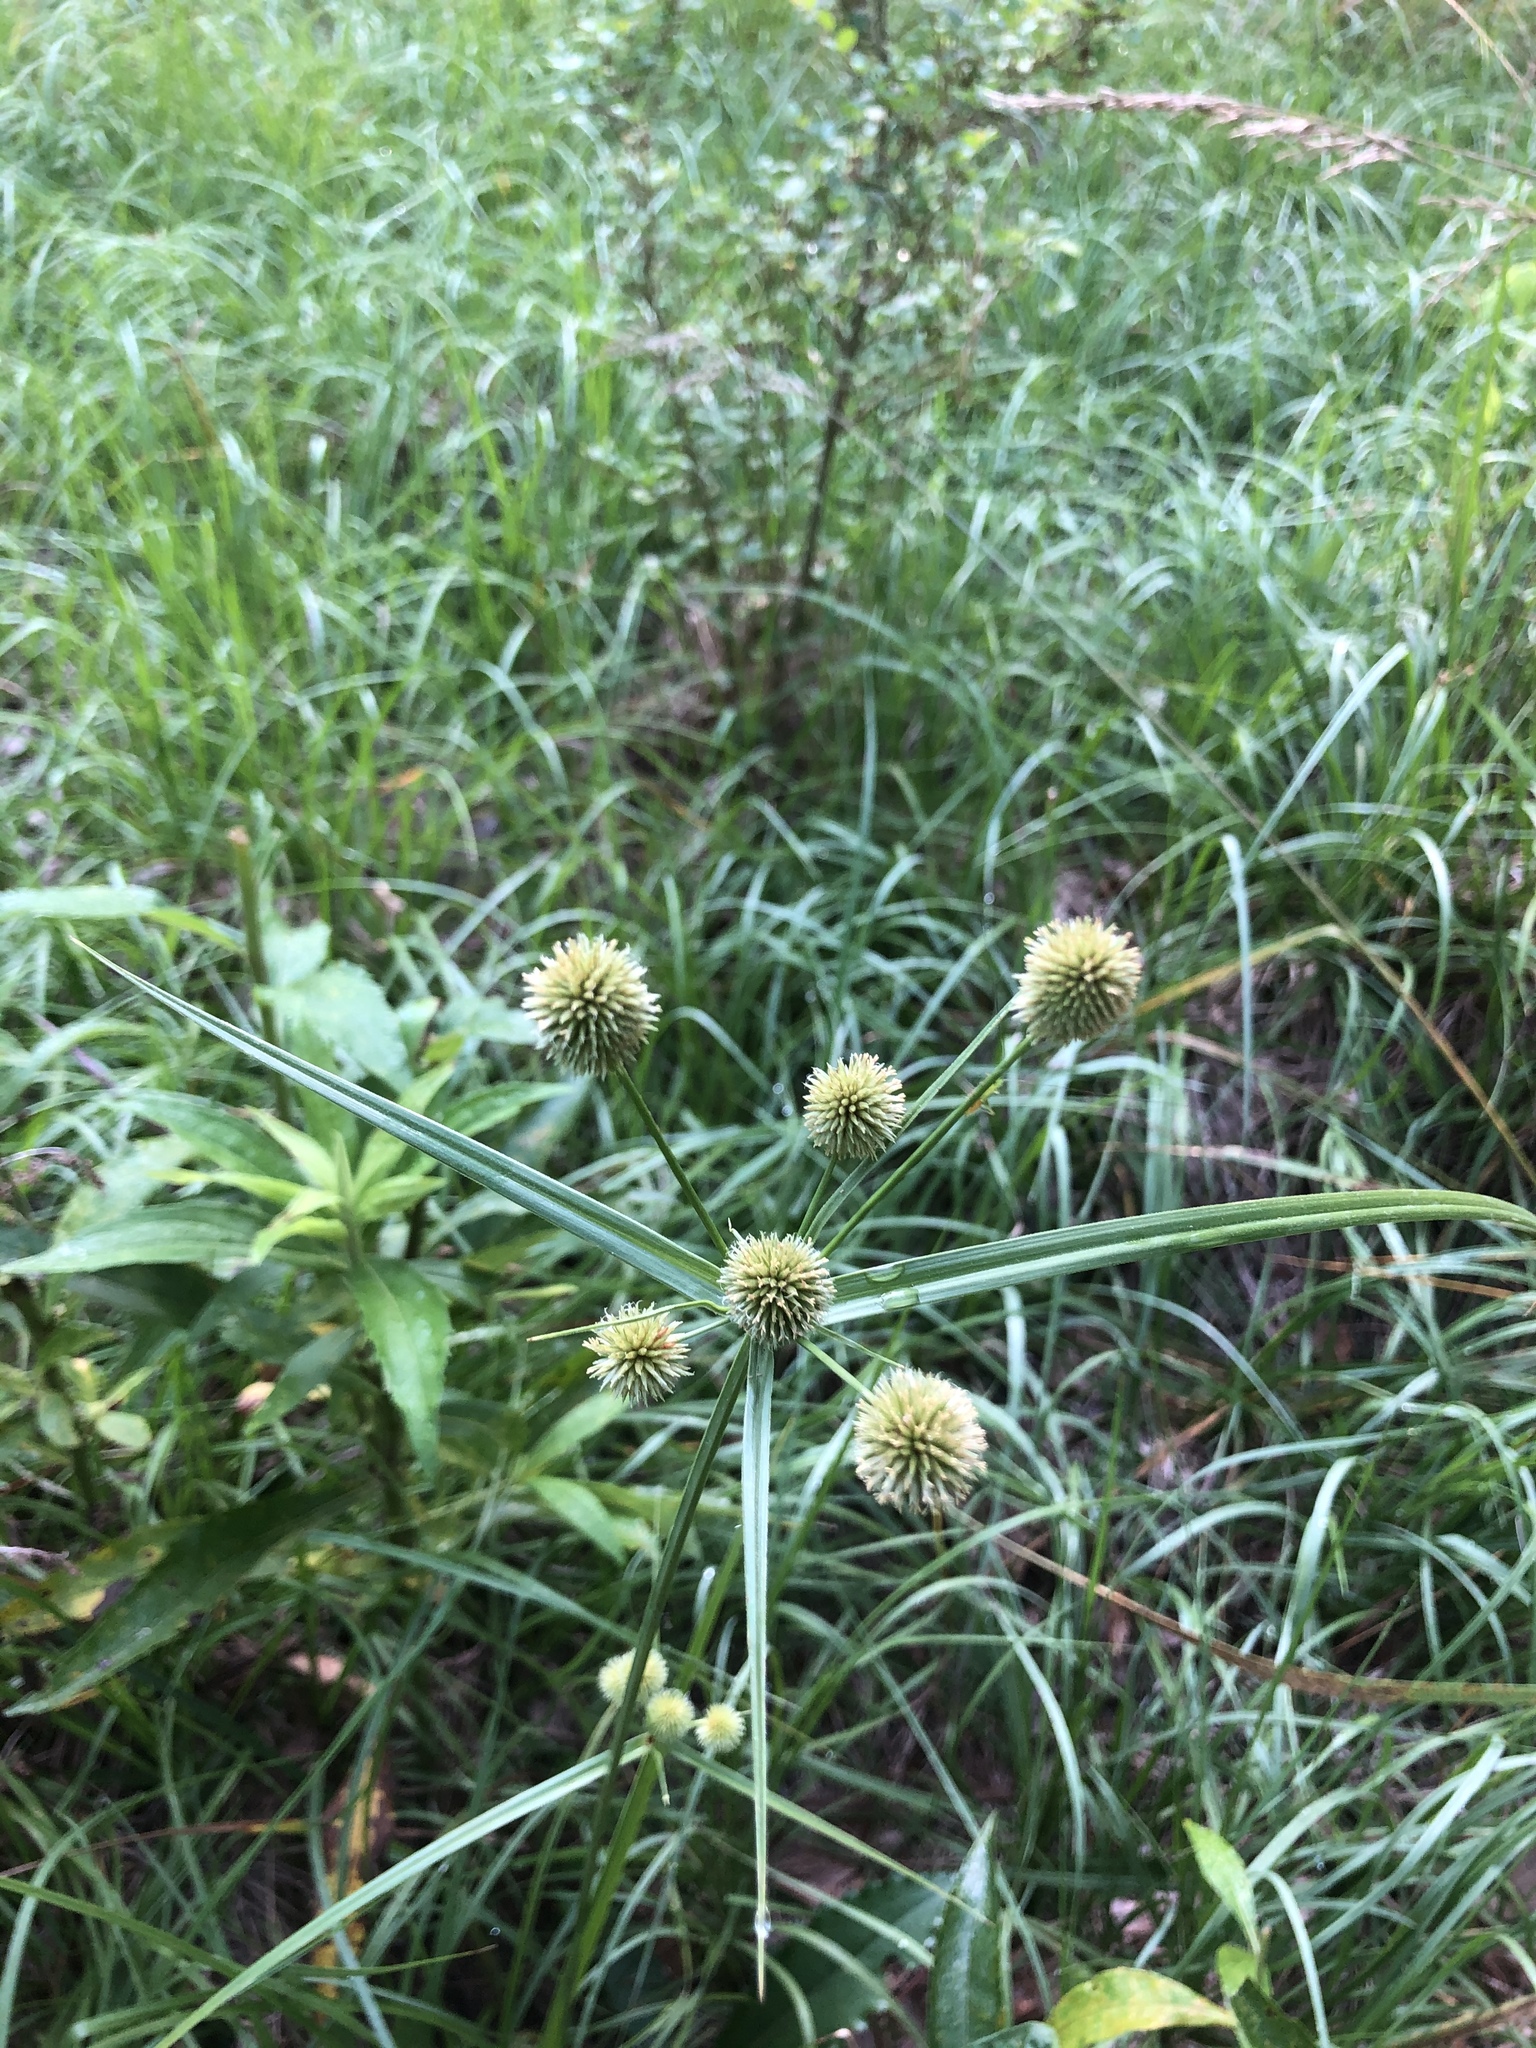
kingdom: Plantae
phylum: Tracheophyta
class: Liliopsida
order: Poales
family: Cyperaceae
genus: Cyperus
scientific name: Cyperus echinatus
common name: Teasel sedge
